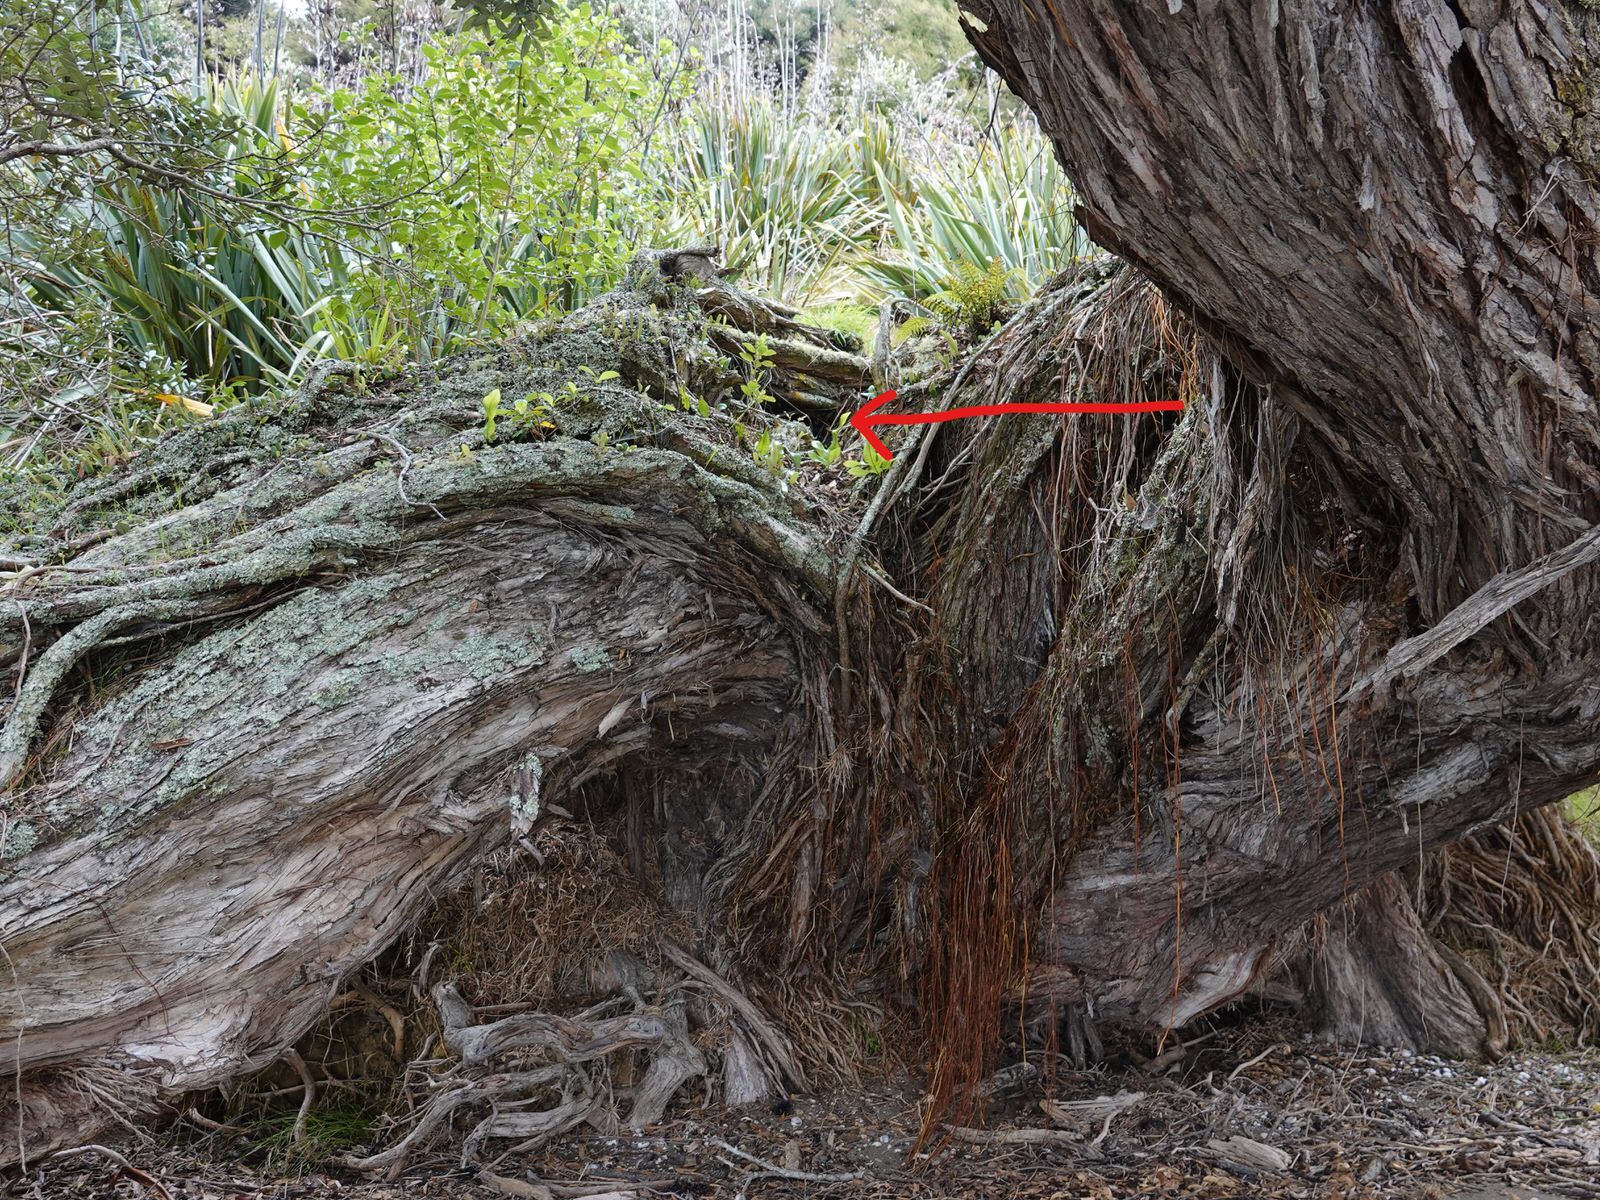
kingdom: Animalia
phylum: Arthropoda
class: Insecta
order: Hymenoptera
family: Vespidae
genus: Vespula
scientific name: Vespula
